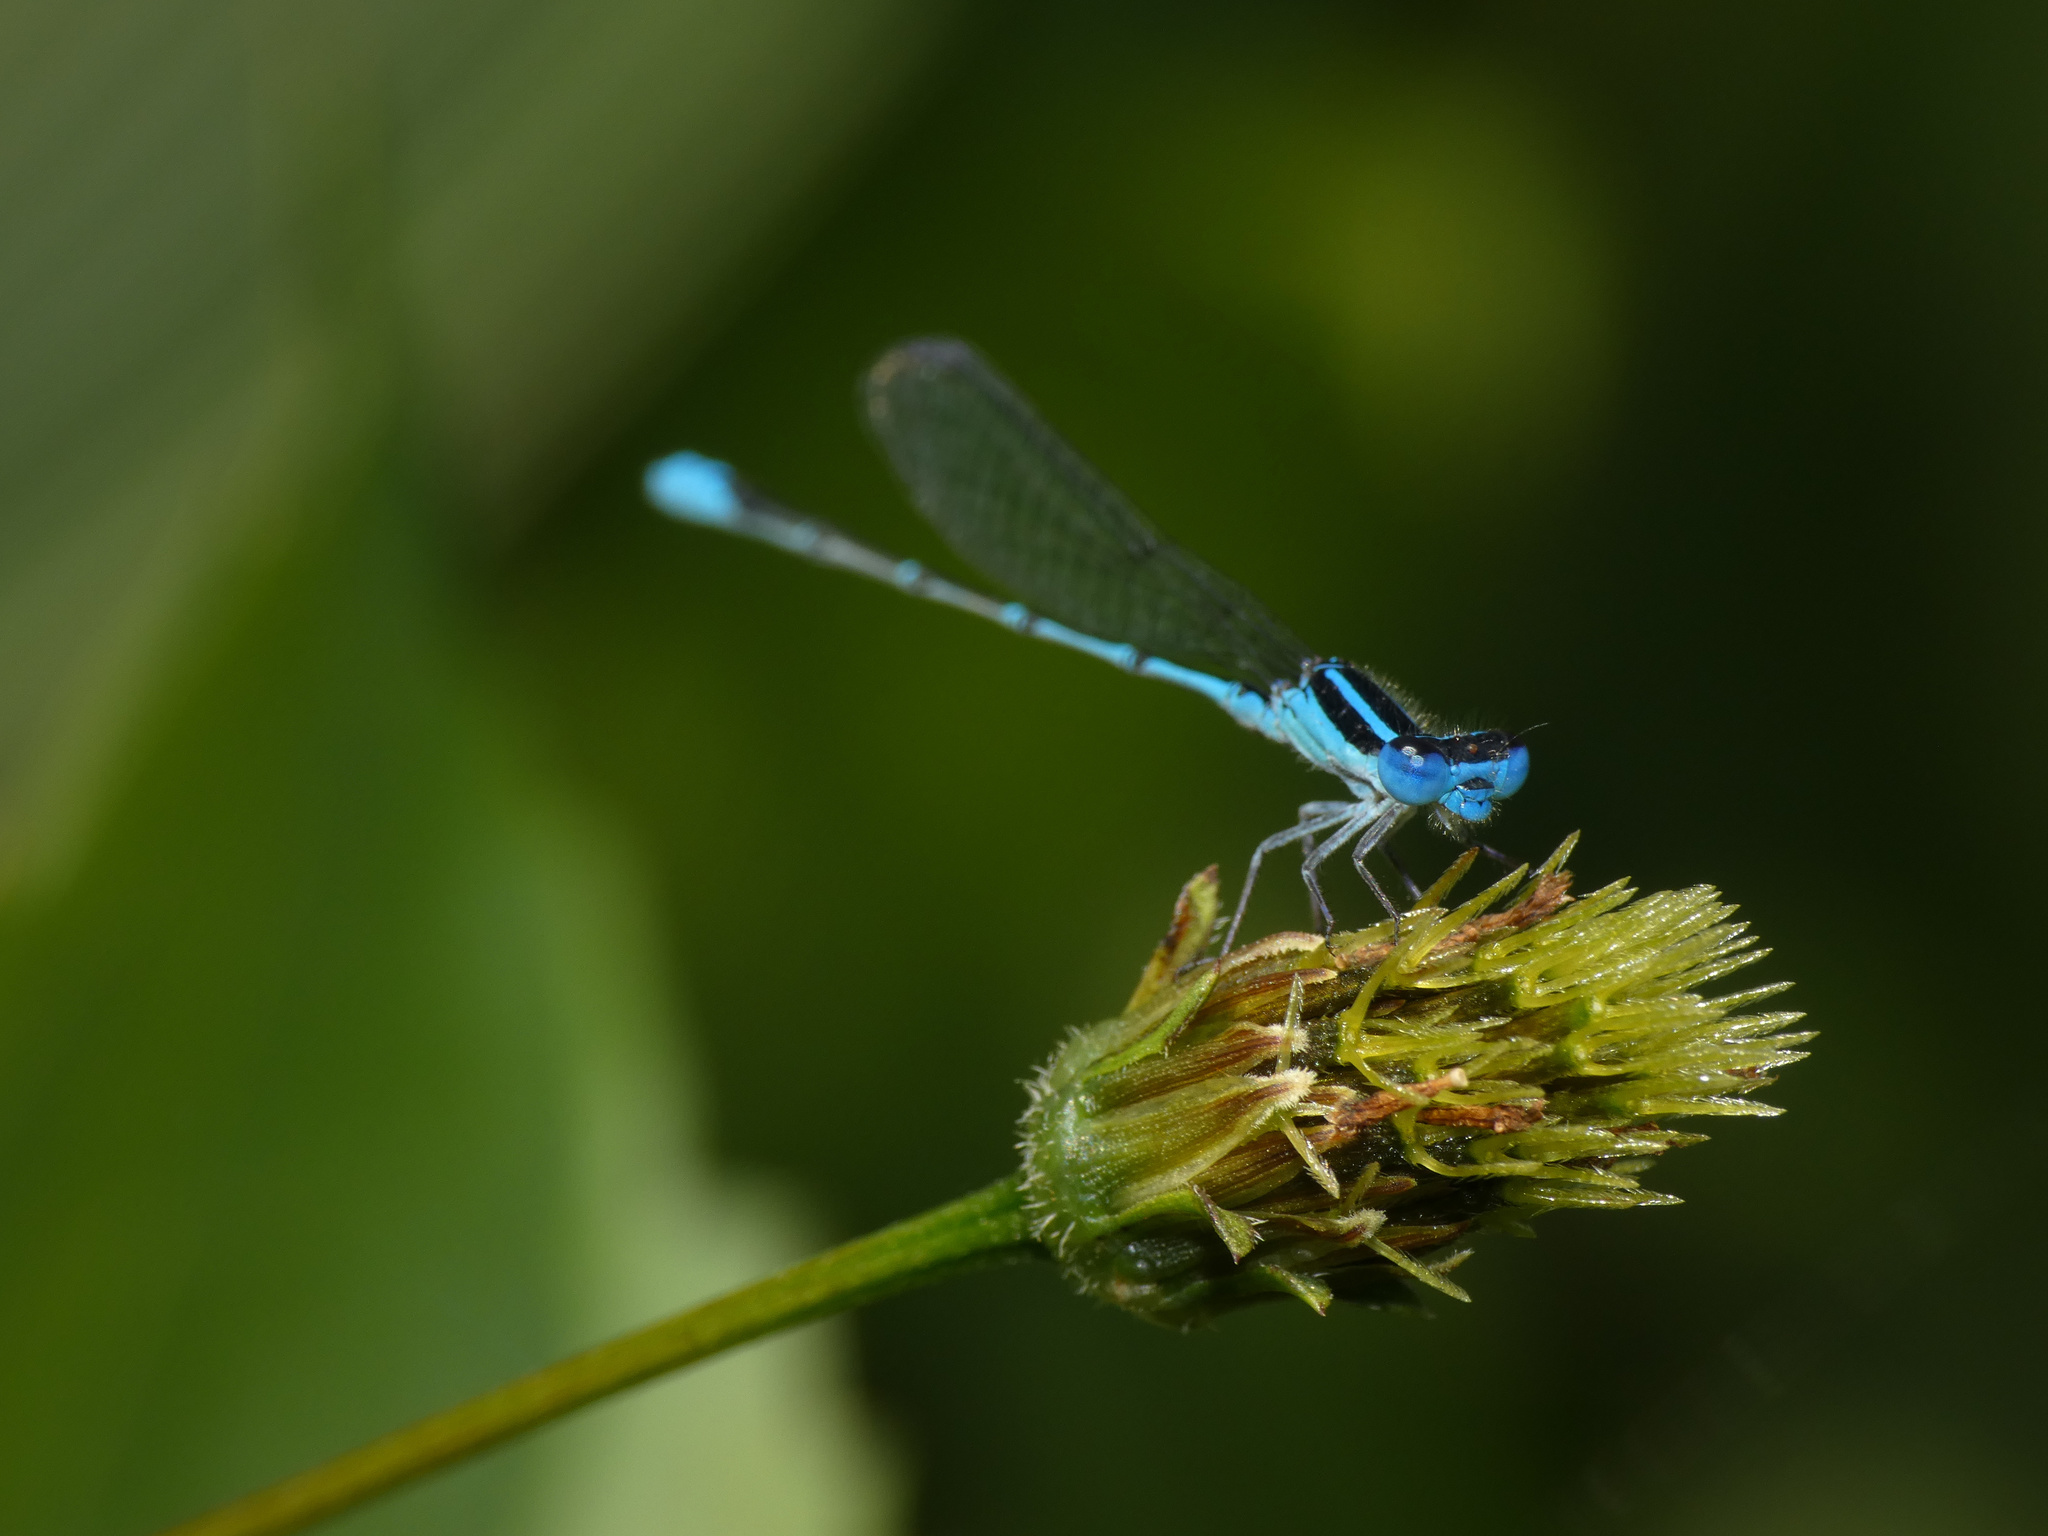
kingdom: Animalia
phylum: Arthropoda
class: Insecta
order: Odonata
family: Coenagrionidae
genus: Azuragrion
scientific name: Azuragrion nigridorsum
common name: Sailing azuret
